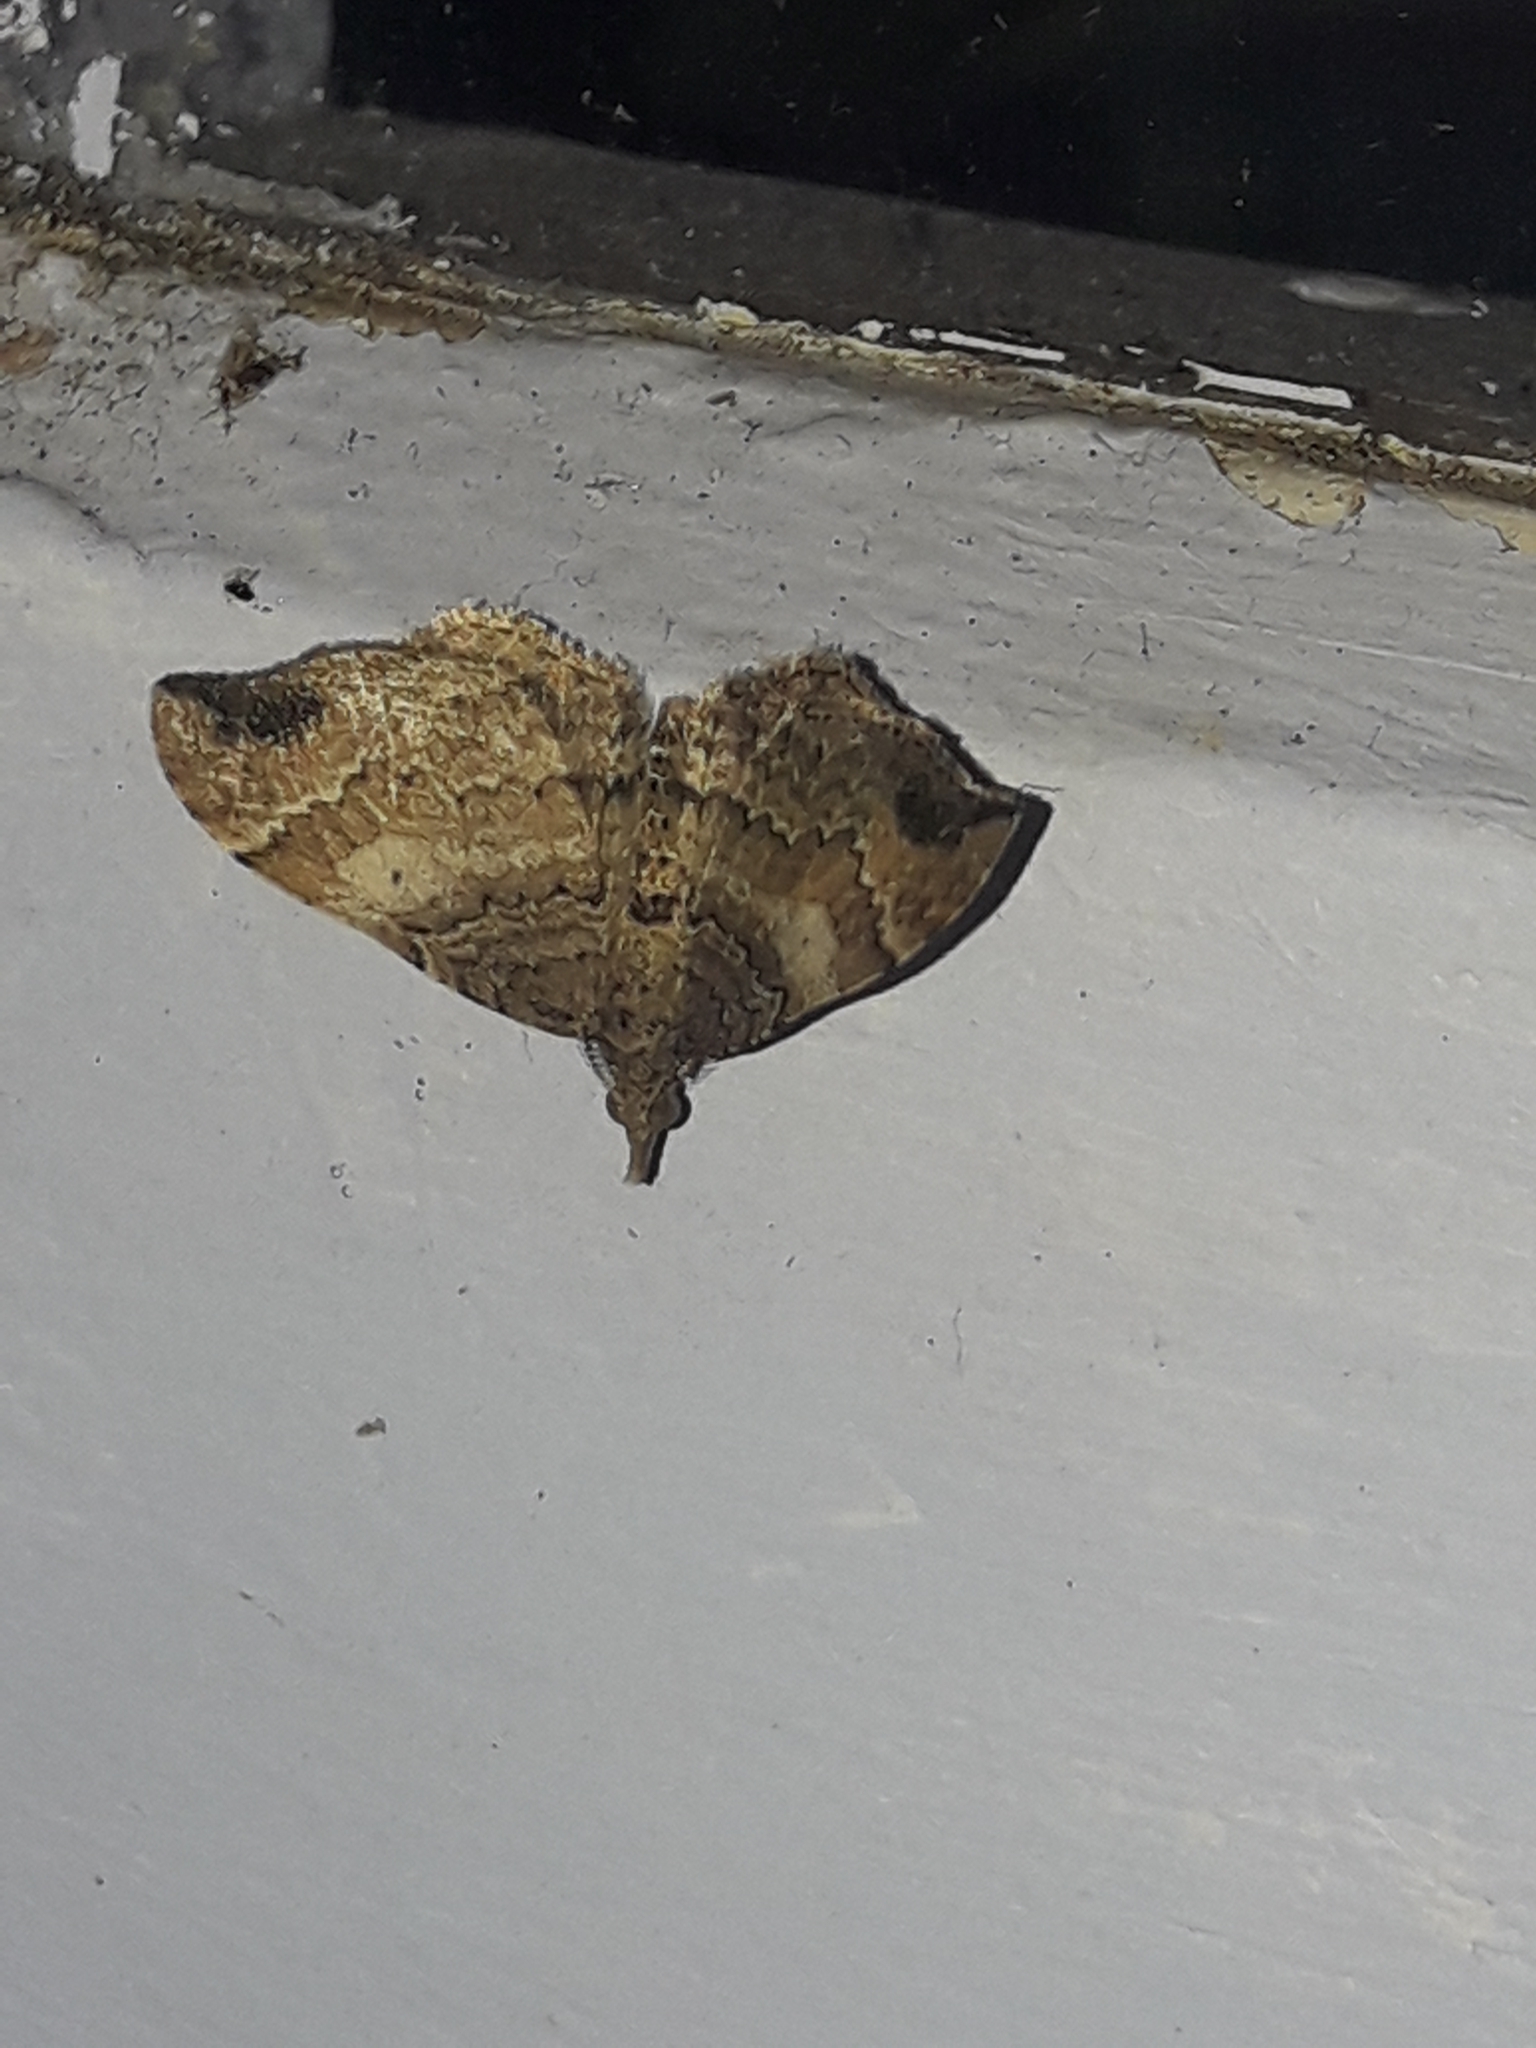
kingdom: Animalia
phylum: Arthropoda
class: Insecta
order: Lepidoptera
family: Geometridae
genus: Homodotis
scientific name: Homodotis megaspilata
